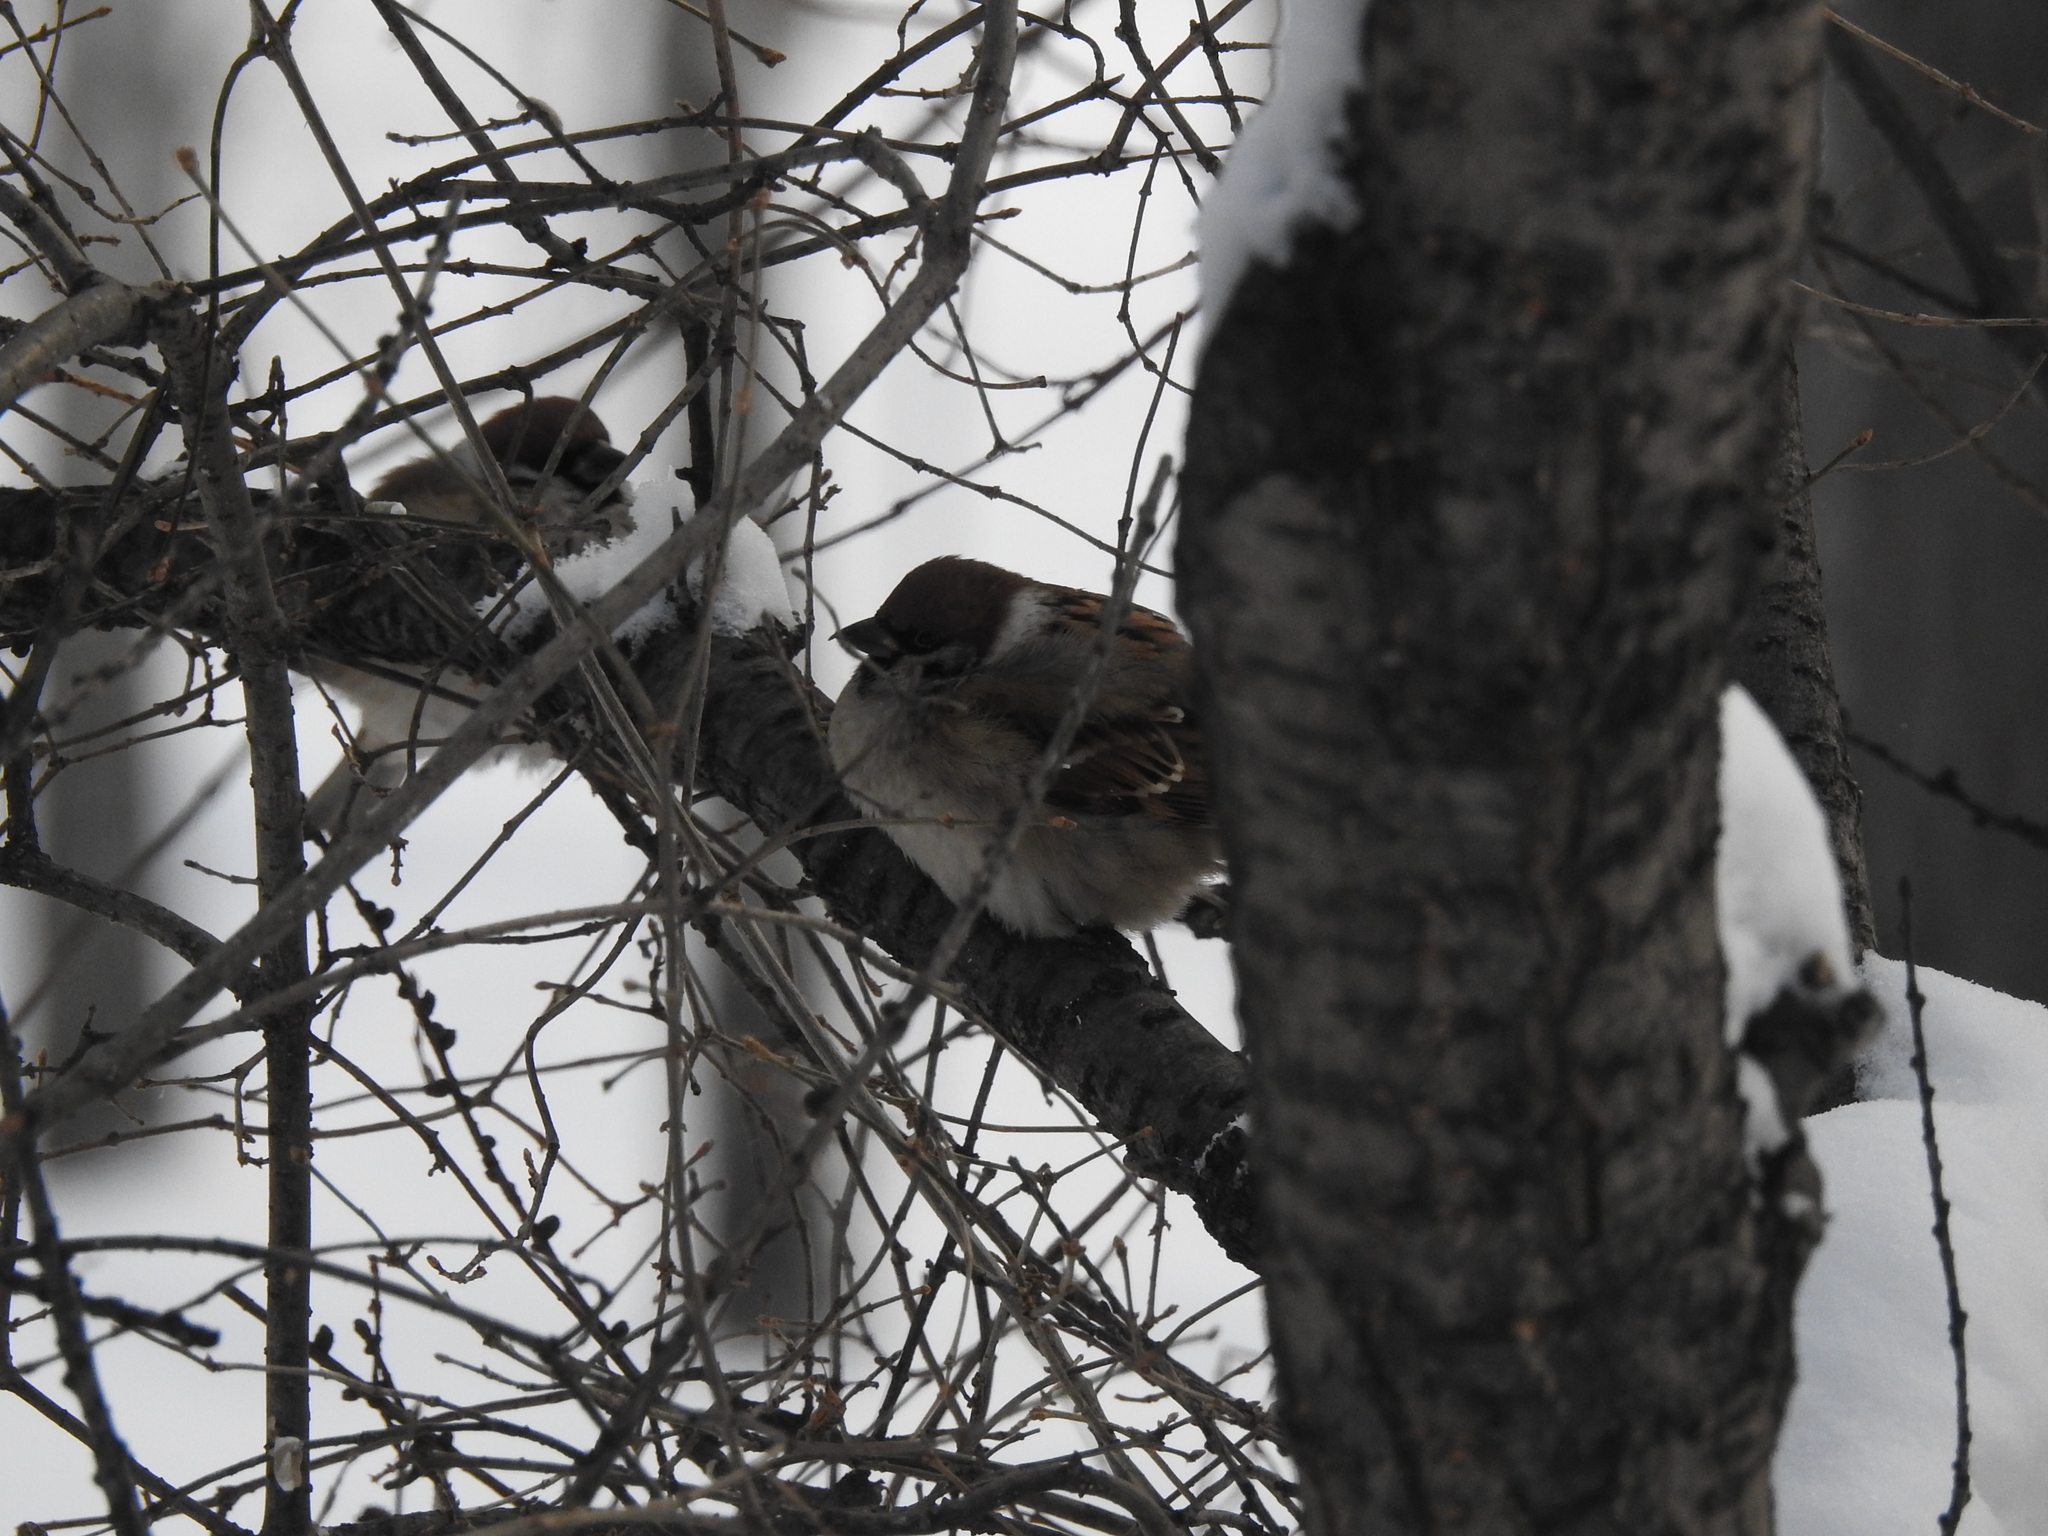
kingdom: Animalia
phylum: Chordata
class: Aves
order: Passeriformes
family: Passeridae
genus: Passer
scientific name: Passer montanus
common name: Eurasian tree sparrow
